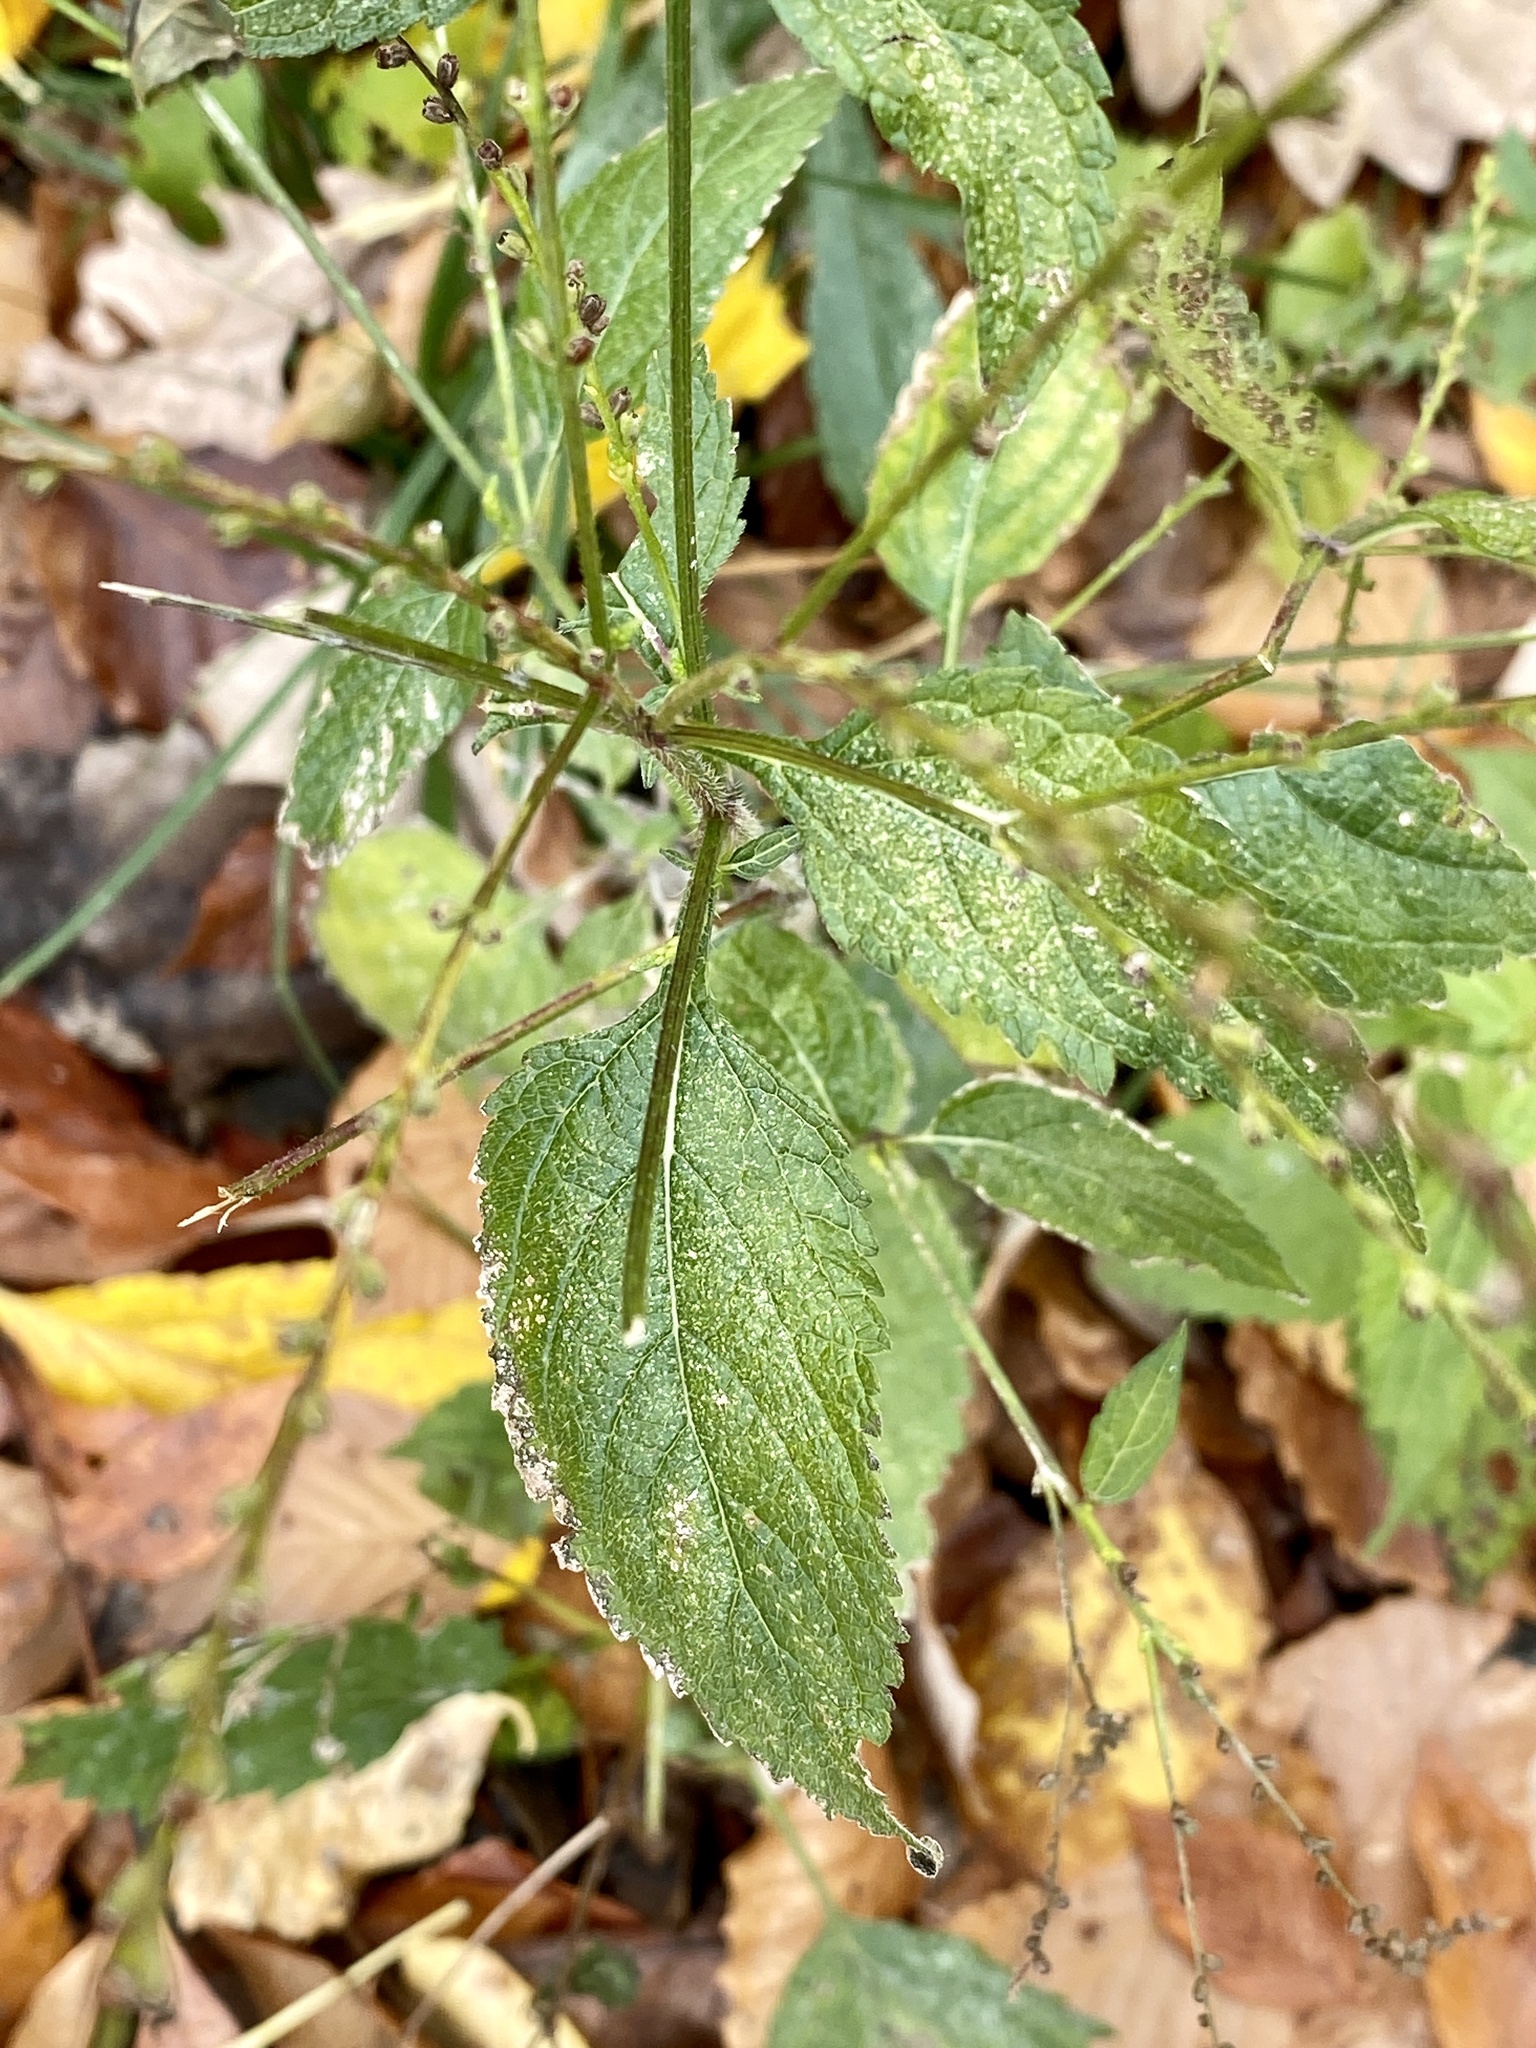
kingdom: Plantae
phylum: Tracheophyta
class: Magnoliopsida
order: Lamiales
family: Verbenaceae
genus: Verbena
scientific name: Verbena urticifolia
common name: Nettle-leaved vervain
